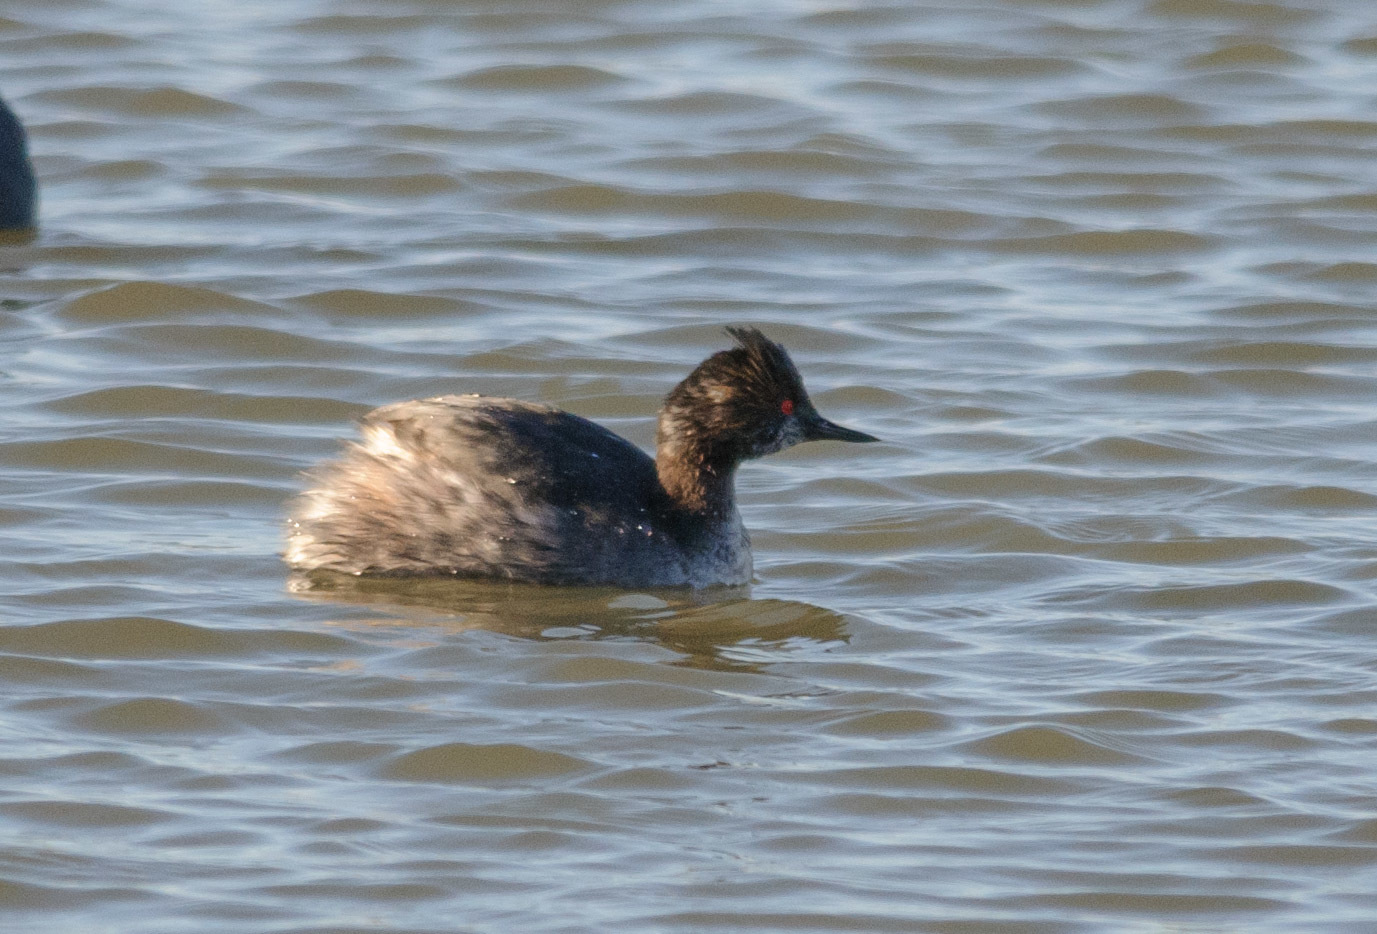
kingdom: Animalia
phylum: Chordata
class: Aves
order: Podicipediformes
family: Podicipedidae
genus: Podiceps
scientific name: Podiceps nigricollis
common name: Black-necked grebe
